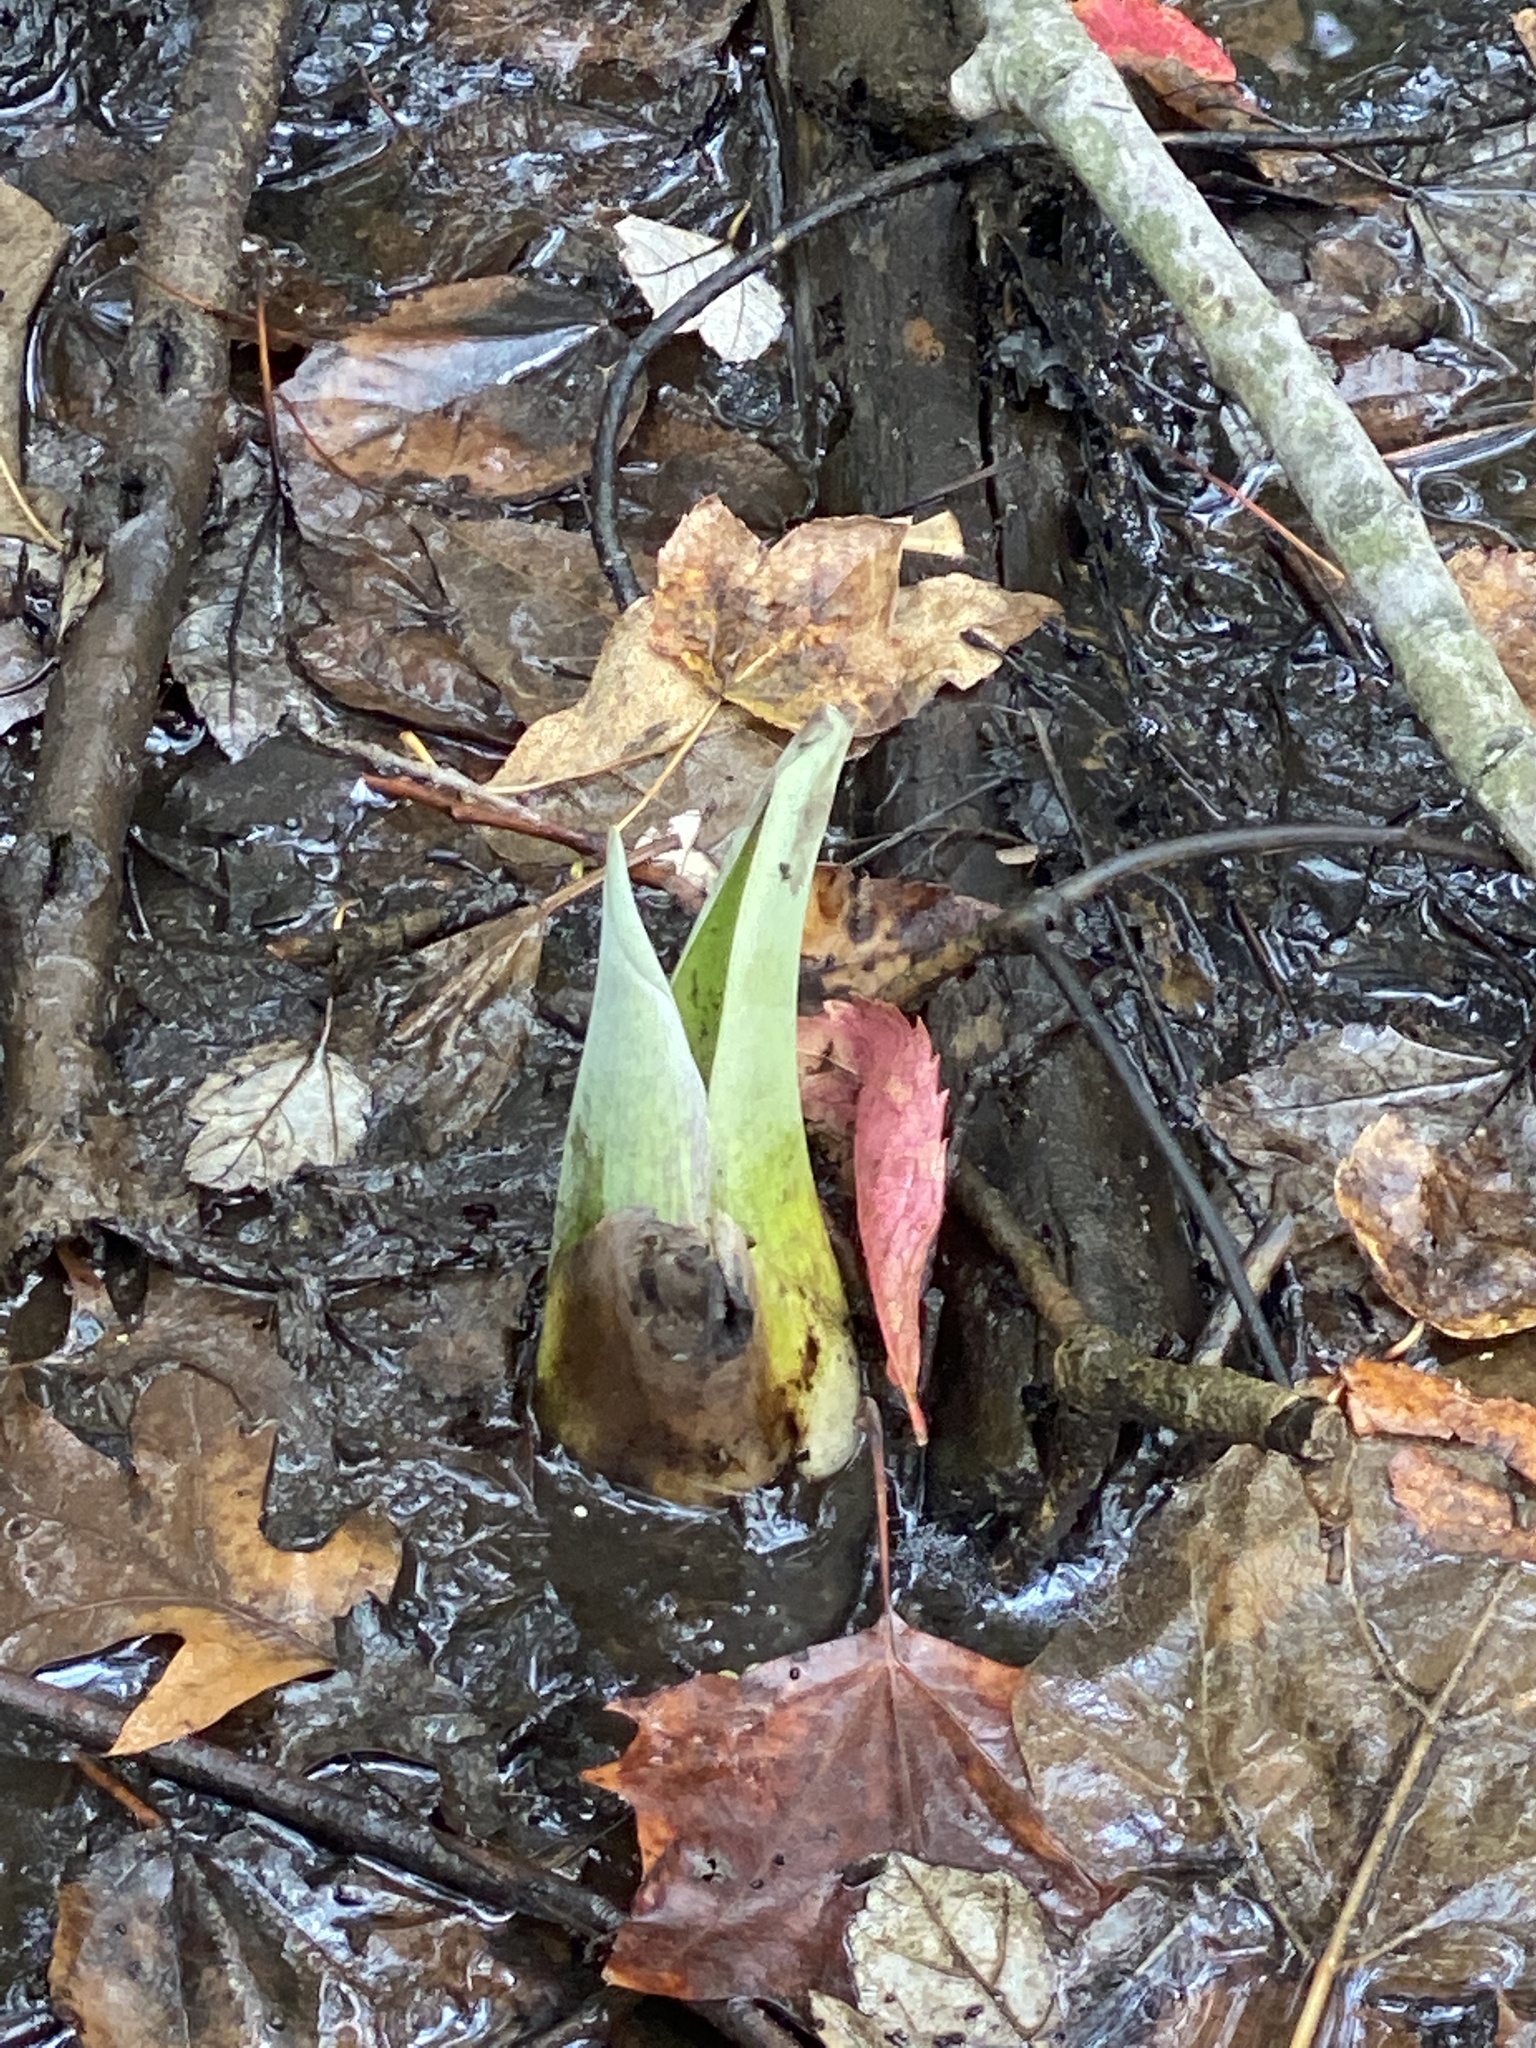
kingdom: Plantae
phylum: Tracheophyta
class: Liliopsida
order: Alismatales
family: Araceae
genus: Symplocarpus
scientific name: Symplocarpus foetidus
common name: Eastern skunk cabbage
